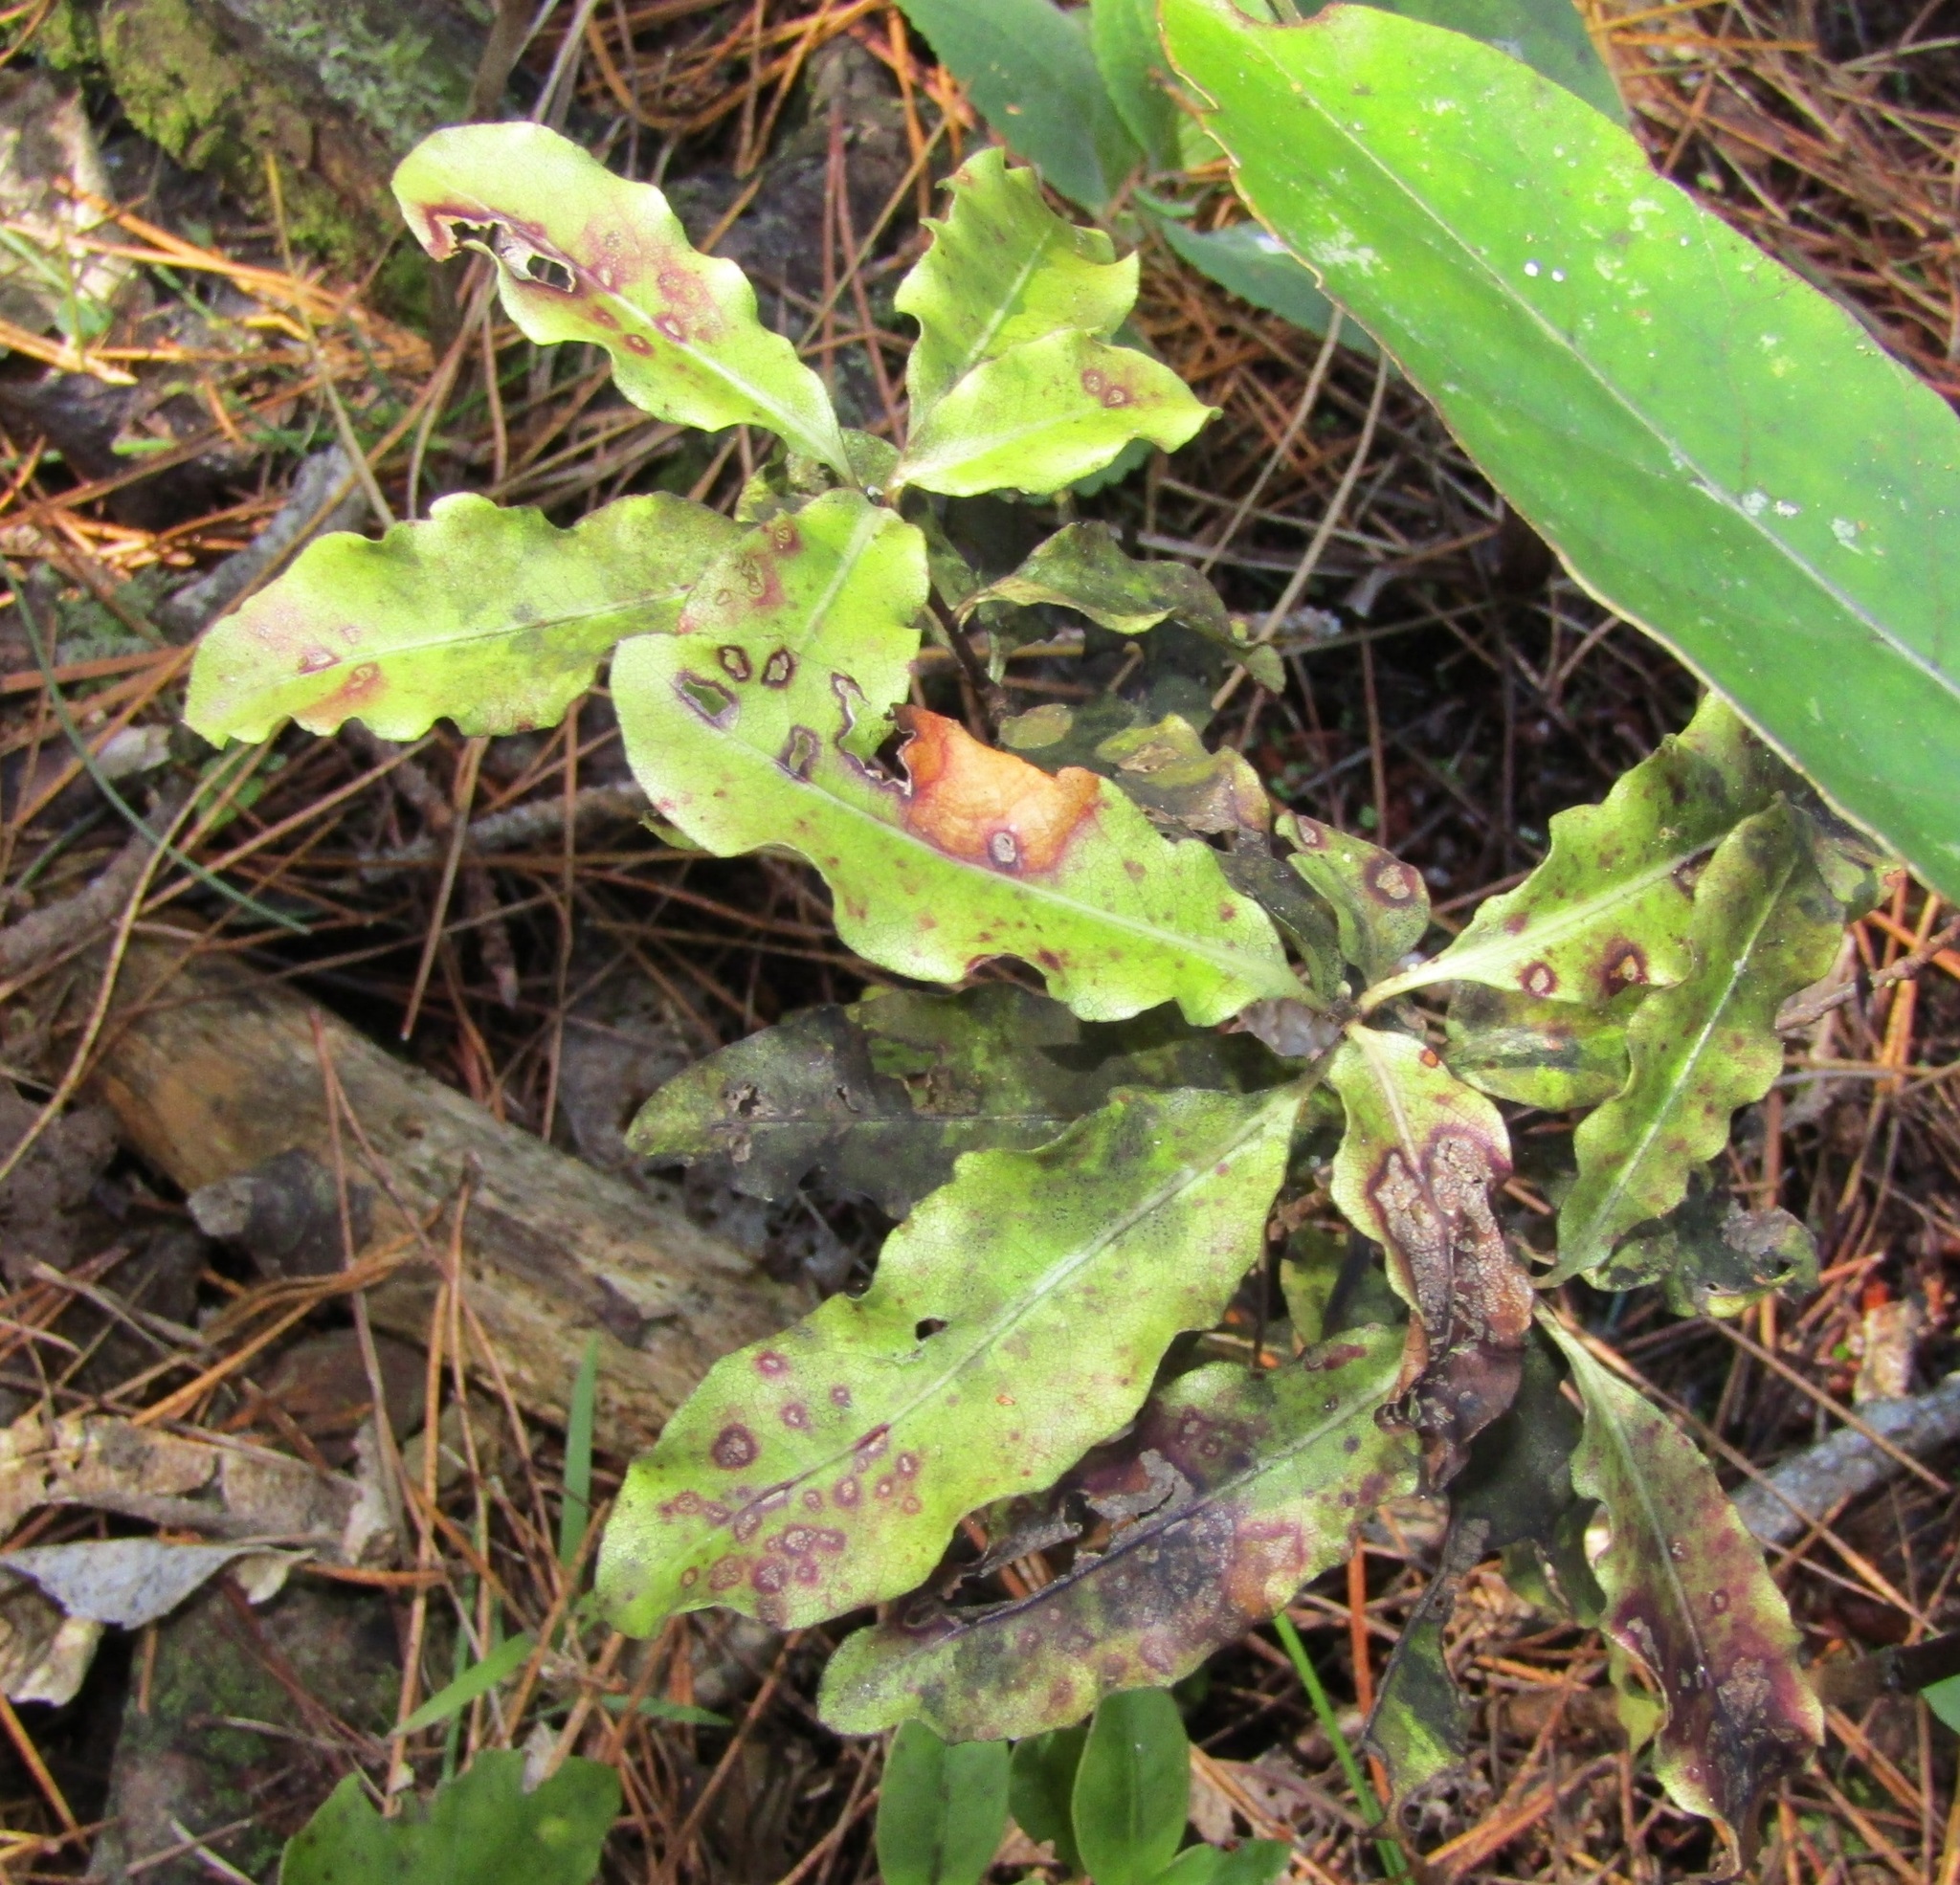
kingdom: Plantae
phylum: Tracheophyta
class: Magnoliopsida
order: Apiales
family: Pittosporaceae
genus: Pittosporum
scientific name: Pittosporum eugenioides
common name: Lemonwood
